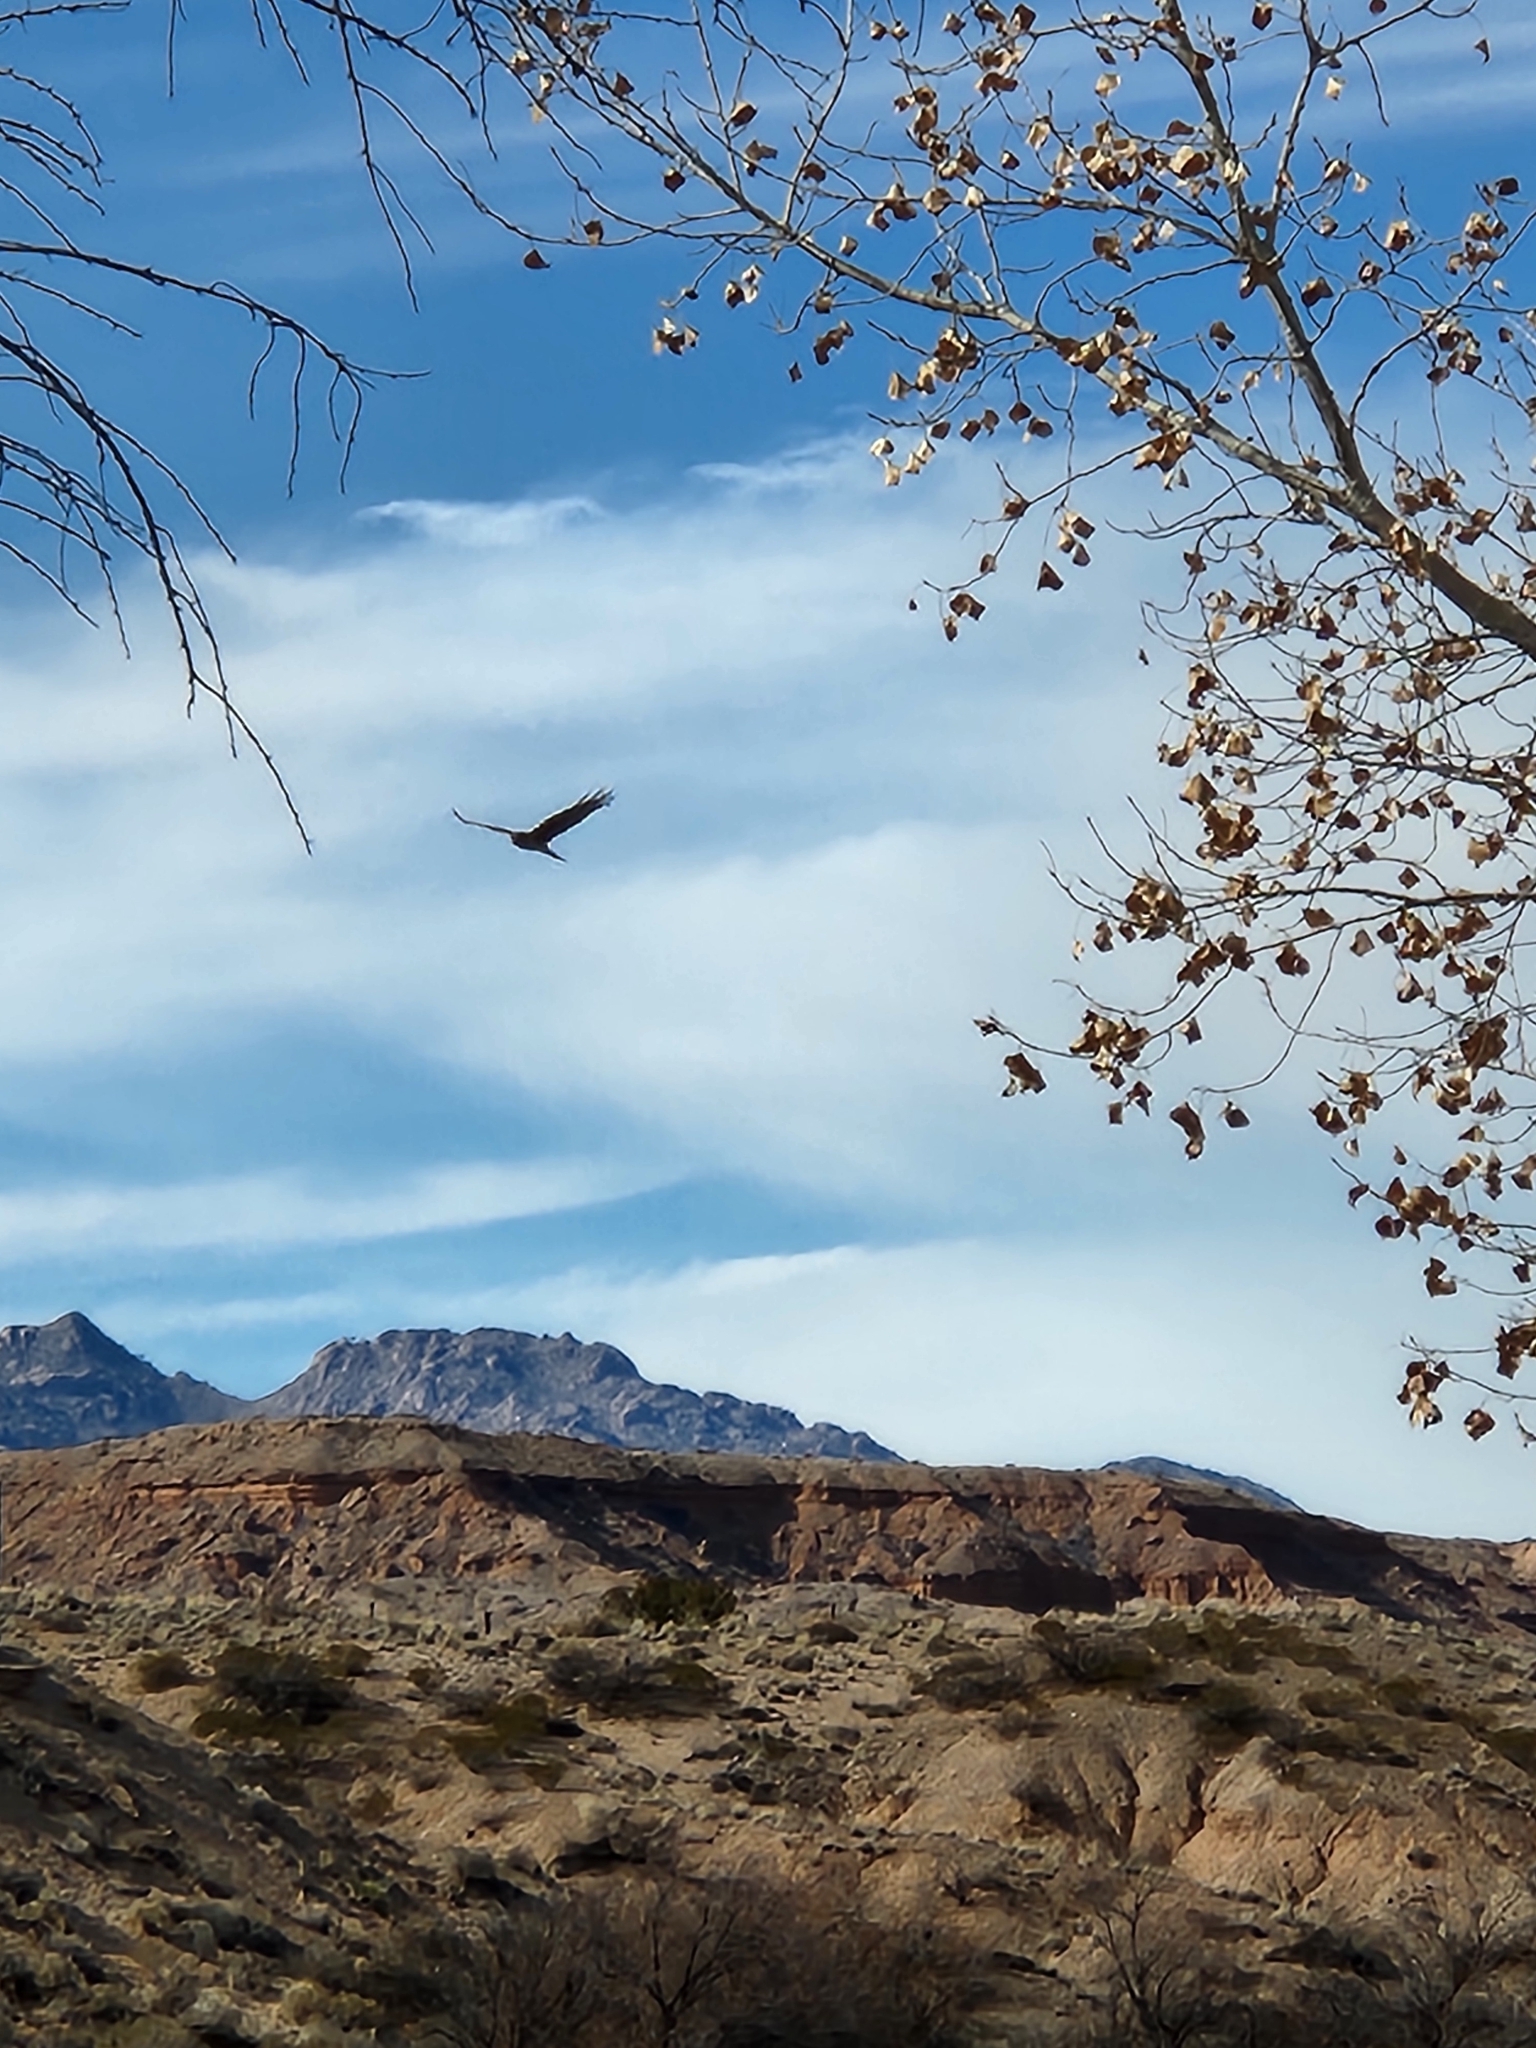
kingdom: Animalia
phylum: Chordata
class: Aves
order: Accipitriformes
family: Cathartidae
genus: Cathartes
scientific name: Cathartes aura
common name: Turkey vulture
